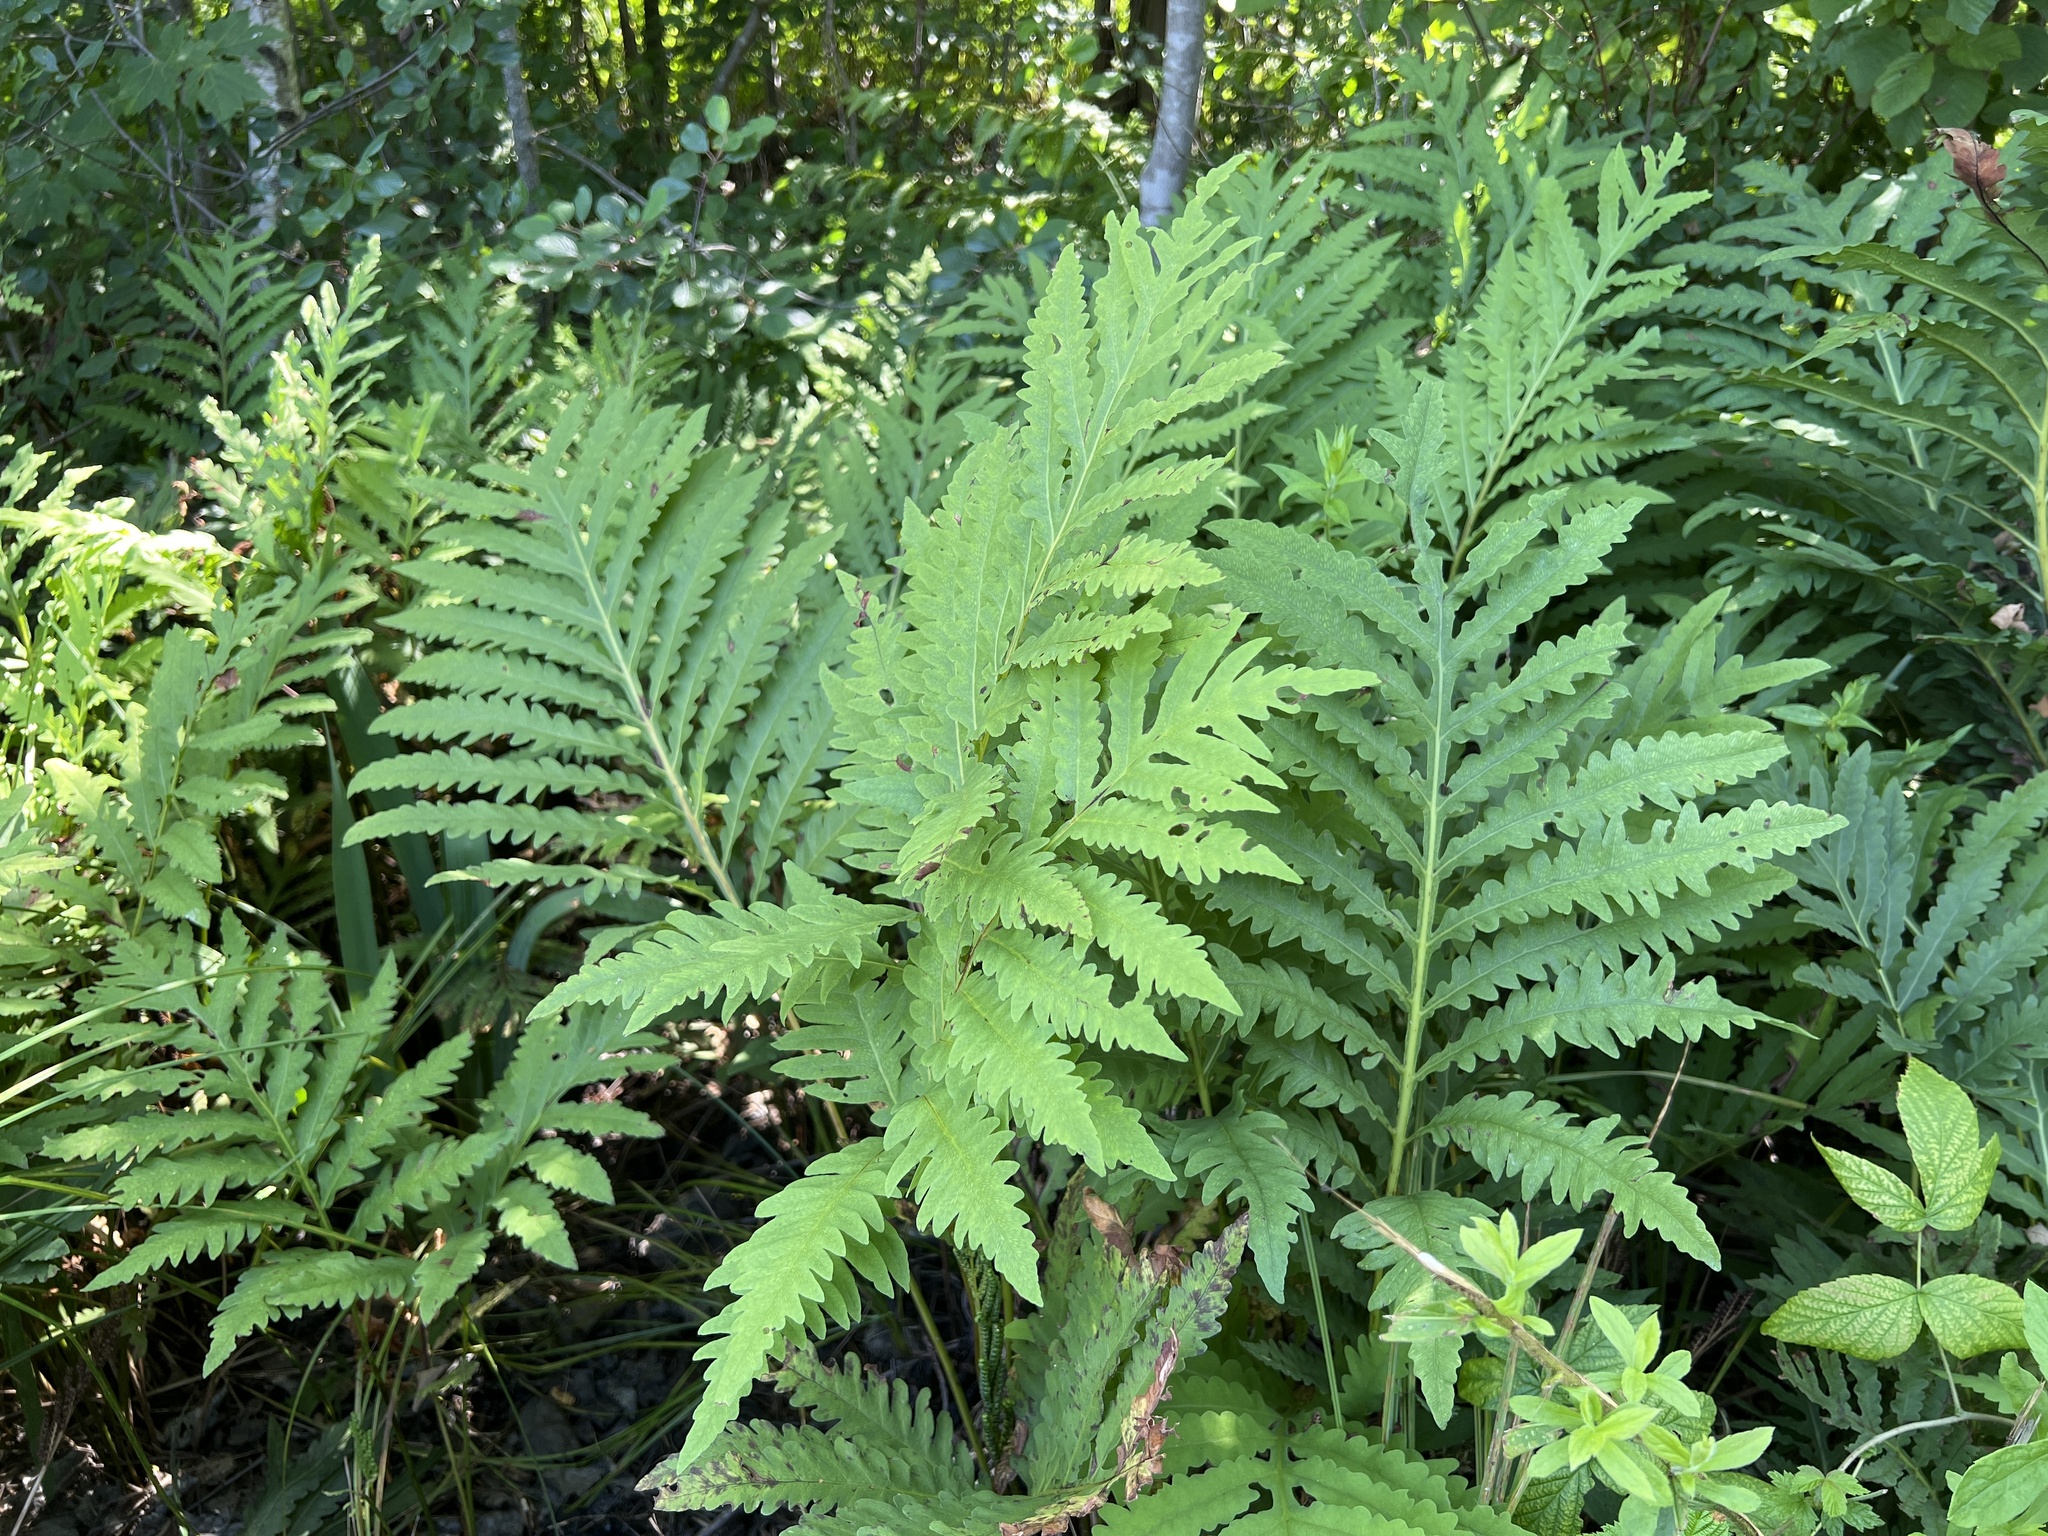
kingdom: Plantae
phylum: Tracheophyta
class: Polypodiopsida
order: Polypodiales
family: Onocleaceae
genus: Onoclea
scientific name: Onoclea sensibilis
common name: Sensitive fern
